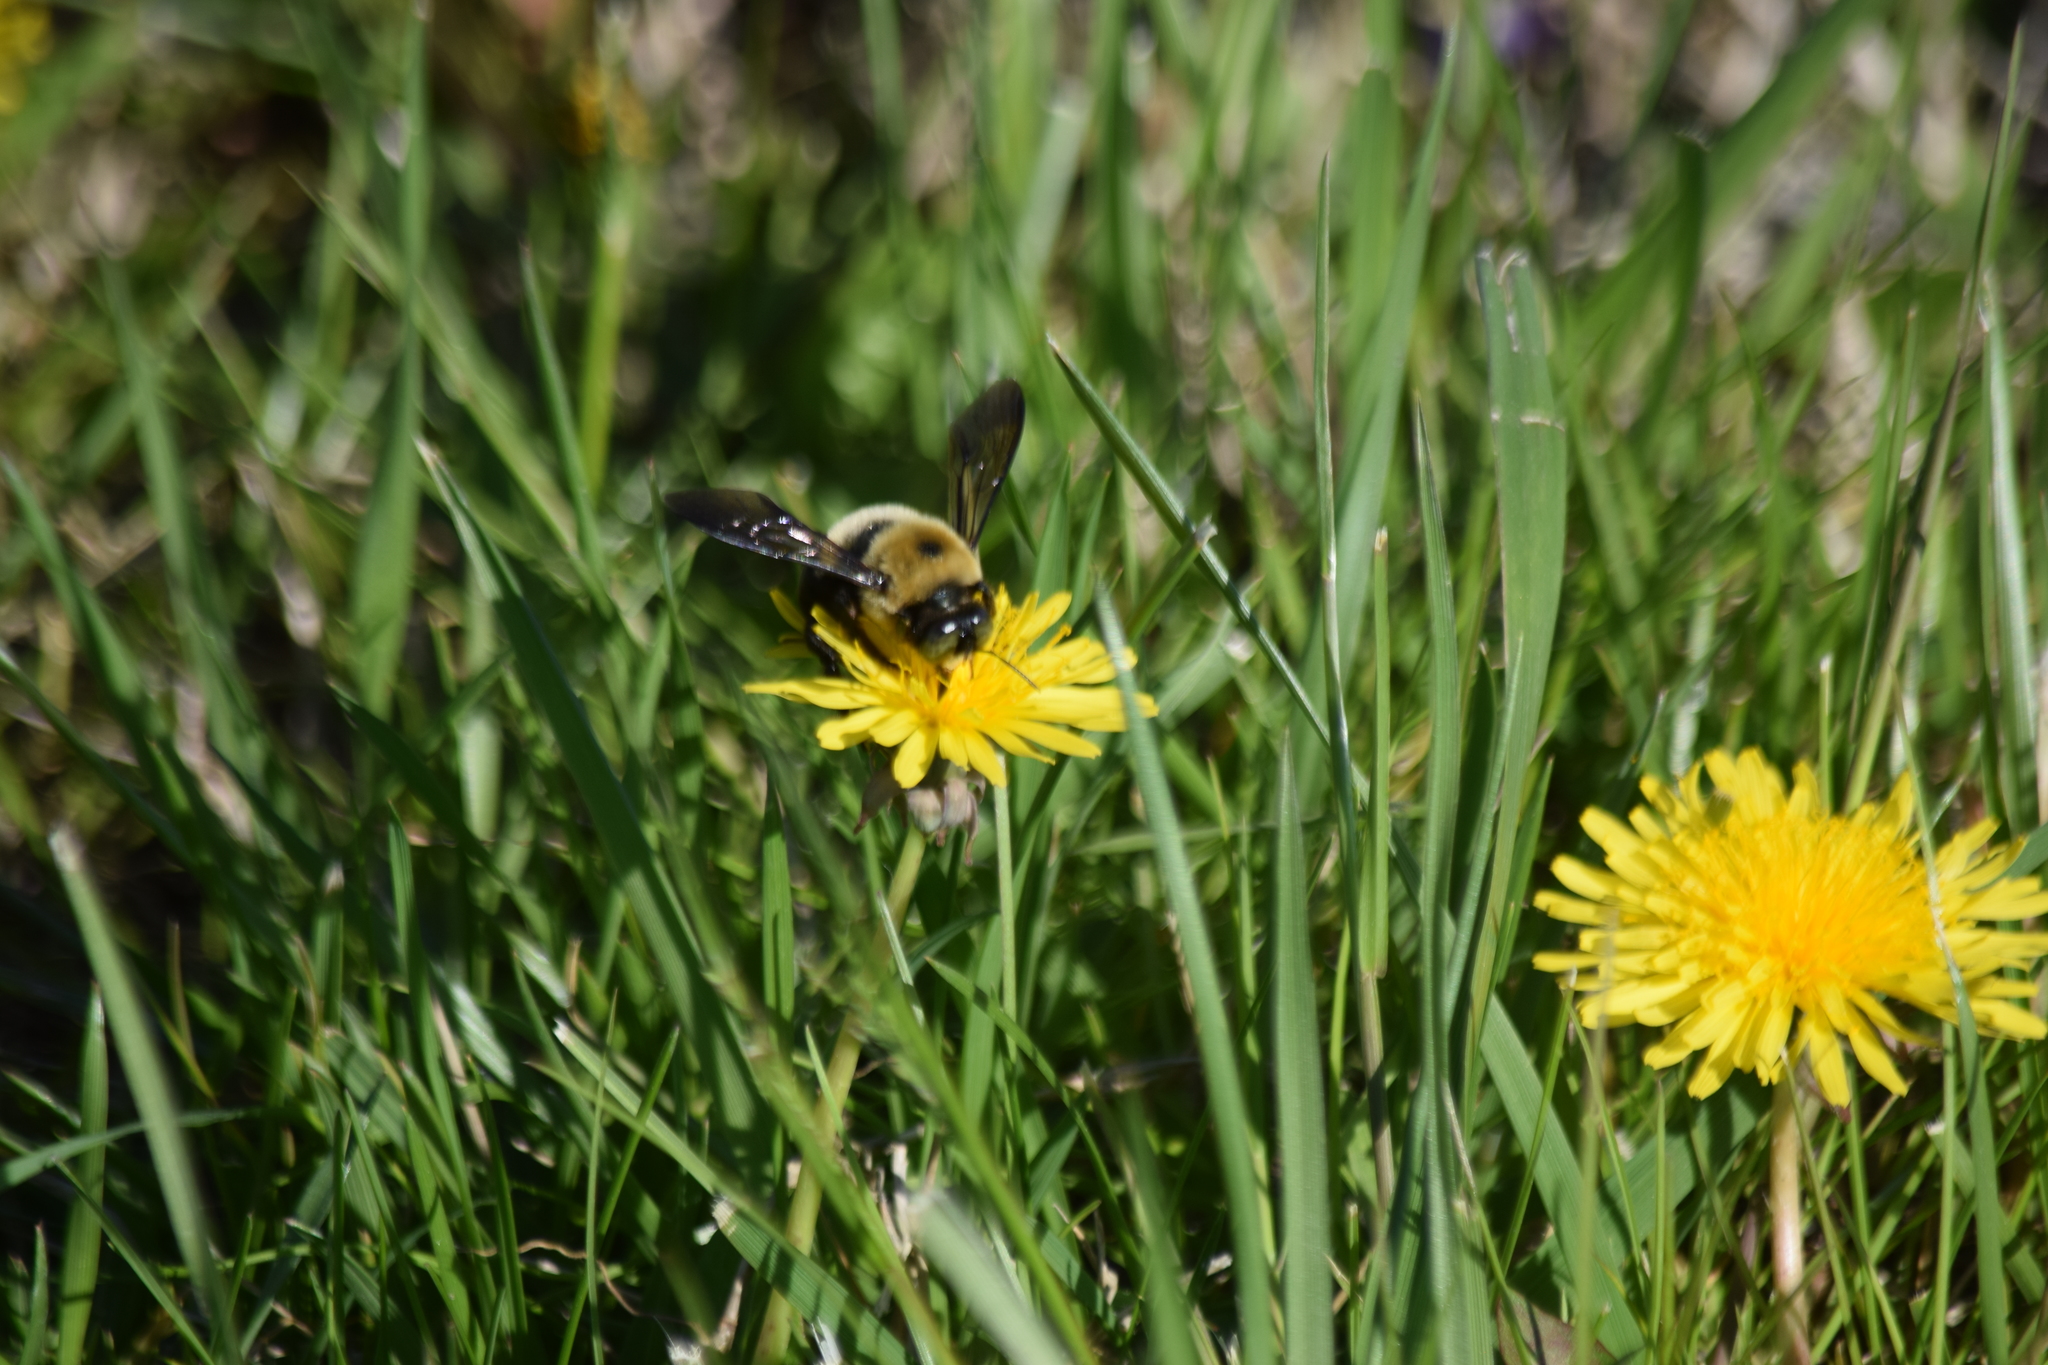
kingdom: Animalia
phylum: Arthropoda
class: Insecta
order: Hymenoptera
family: Apidae
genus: Xylocopa
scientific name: Xylocopa virginica
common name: Carpenter bee
